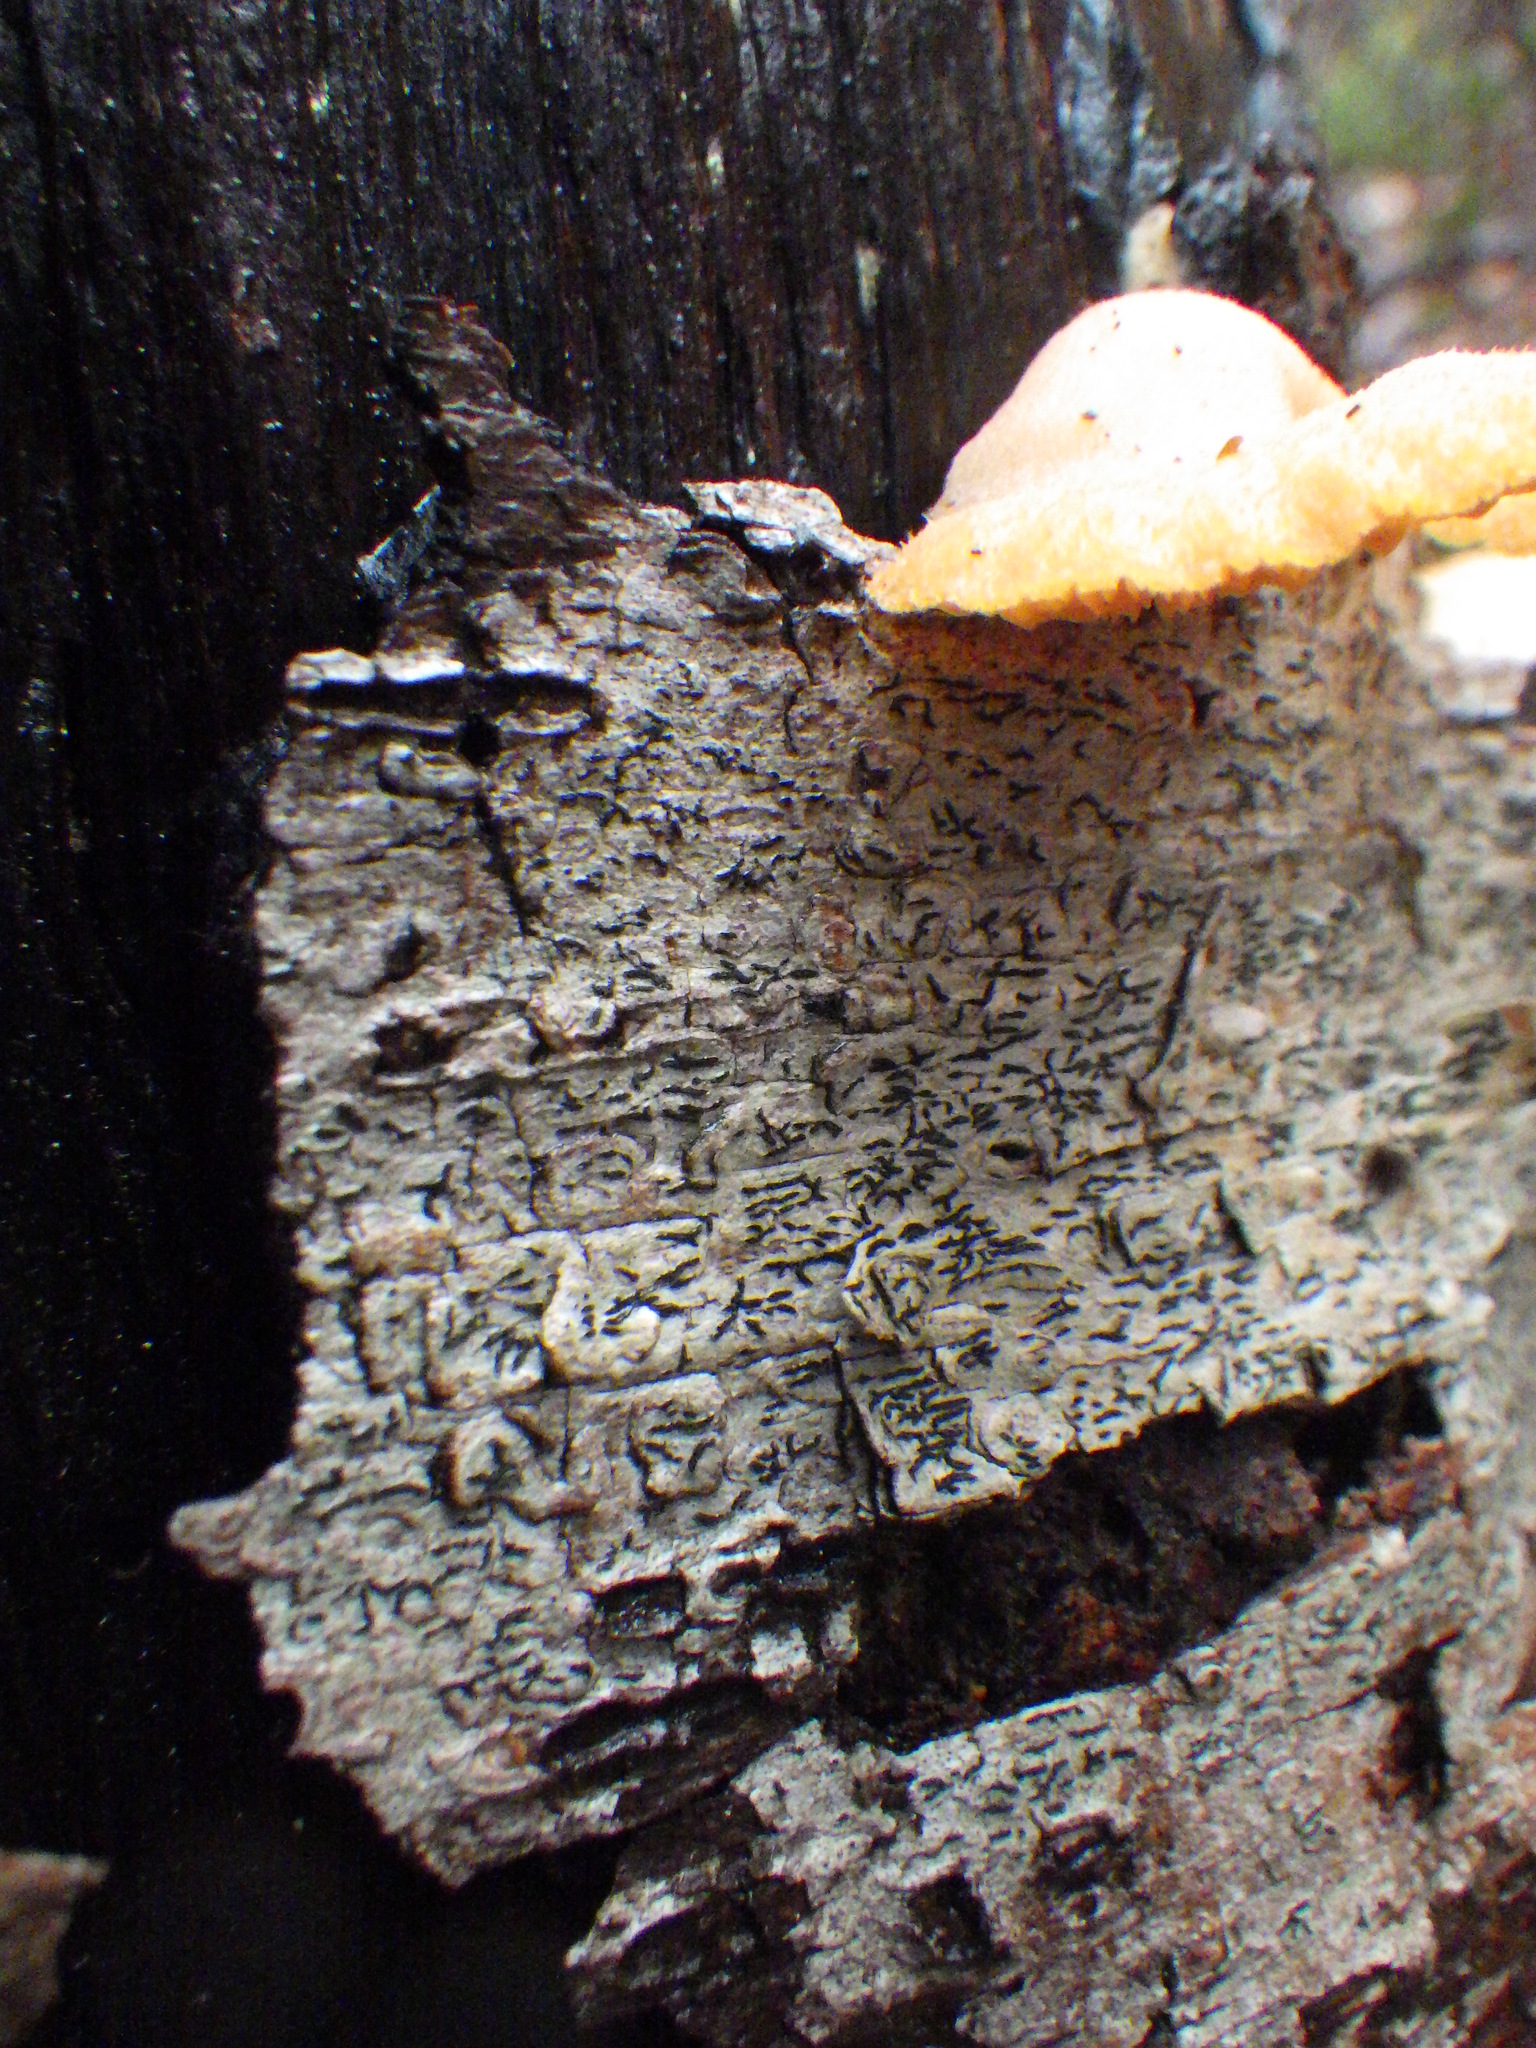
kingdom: Fungi
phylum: Ascomycota
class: Lecanoromycetes
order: Ostropales
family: Graphidaceae
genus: Graphis
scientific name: Graphis scripta
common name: Script lichen
